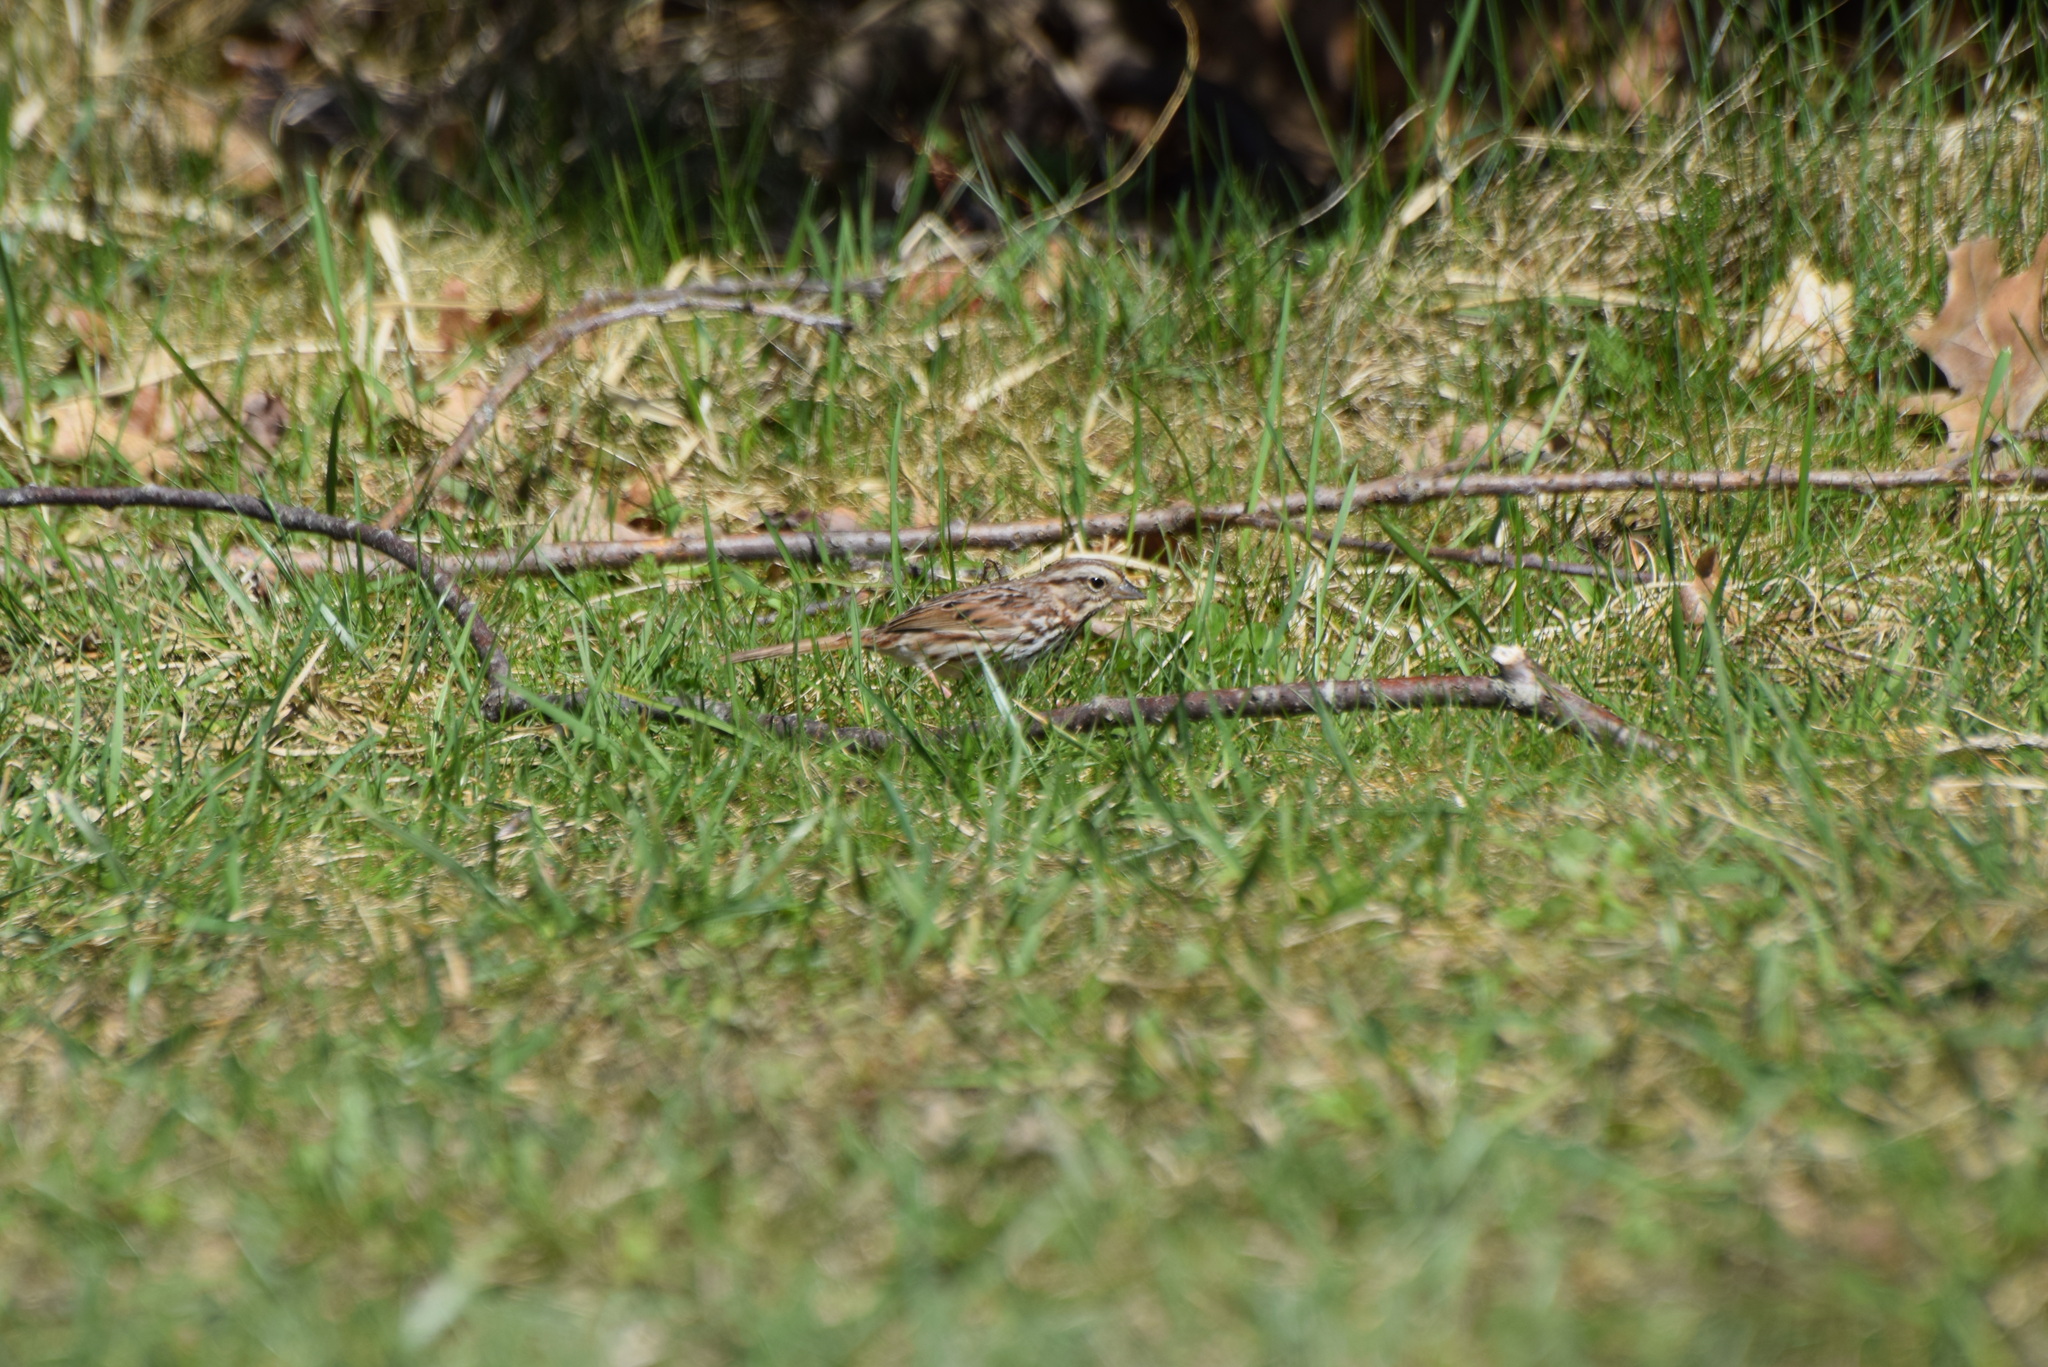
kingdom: Animalia
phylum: Chordata
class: Aves
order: Passeriformes
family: Passerellidae
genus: Melospiza
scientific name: Melospiza melodia
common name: Song sparrow
